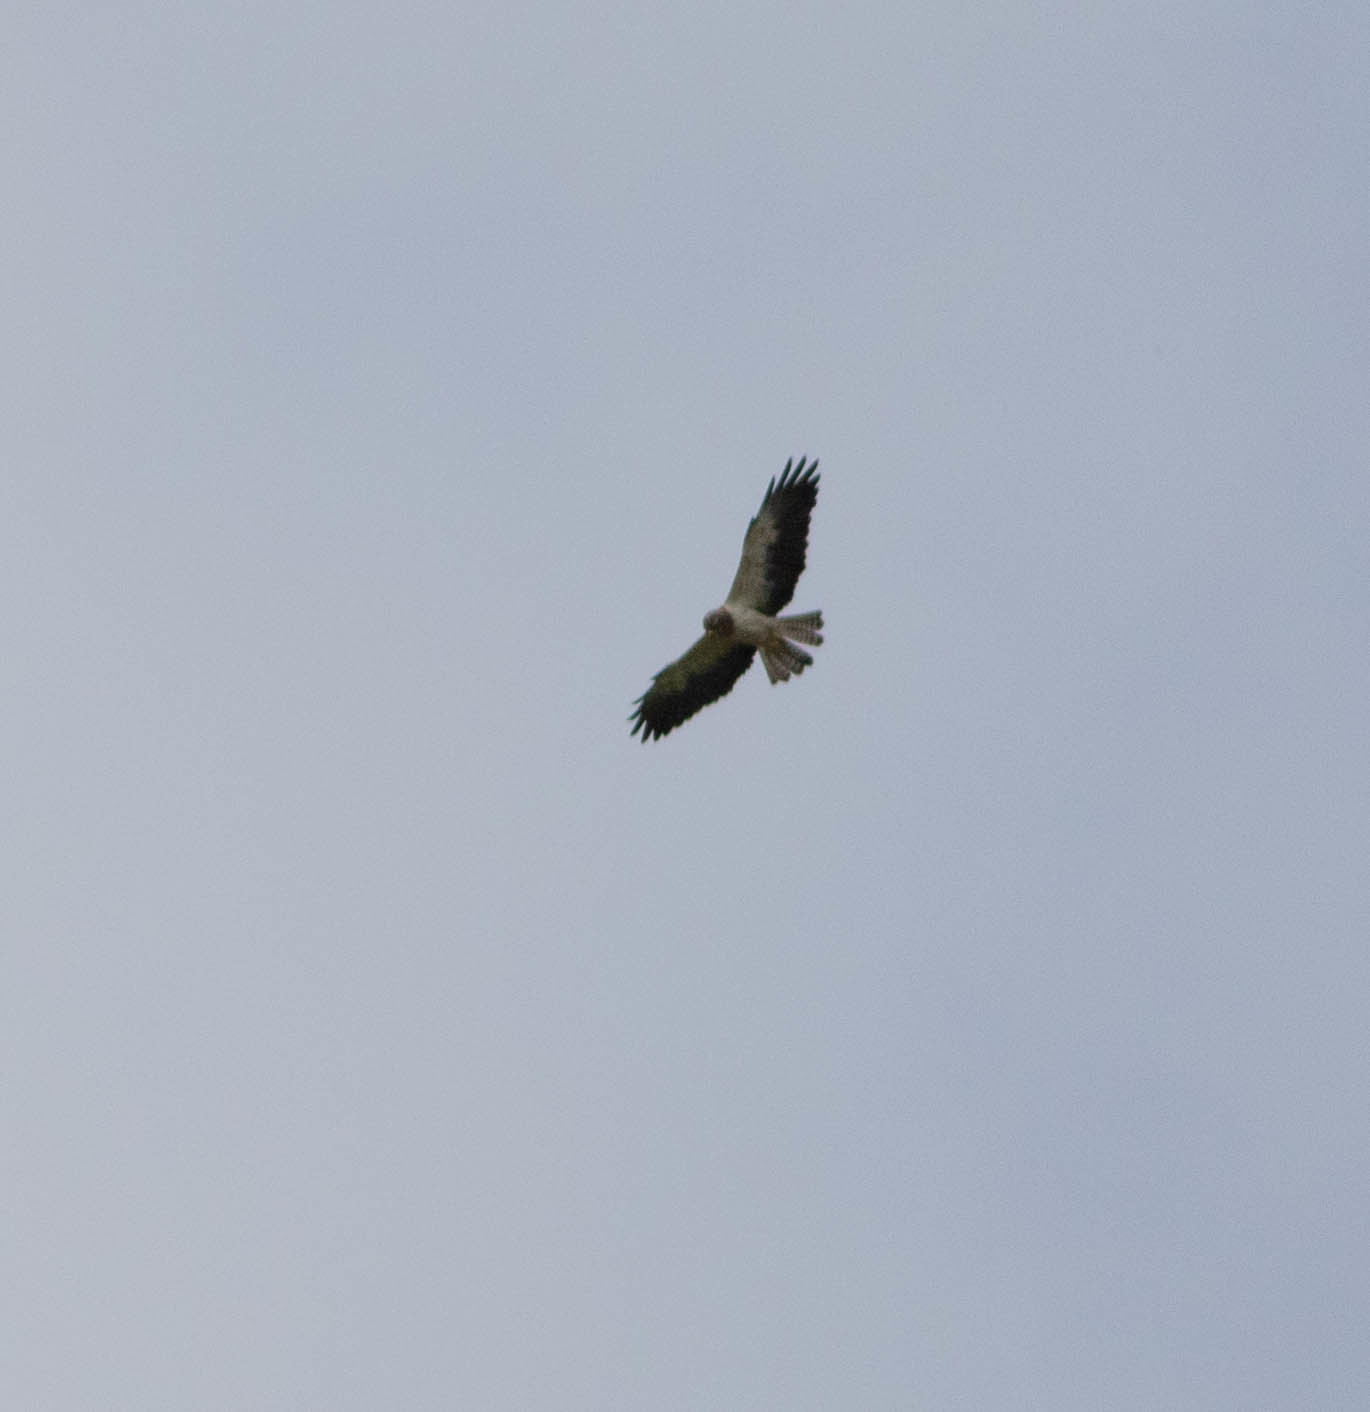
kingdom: Animalia
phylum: Chordata
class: Aves
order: Accipitriformes
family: Accipitridae
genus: Buteo
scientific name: Buteo swainsoni
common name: Swainson's hawk
